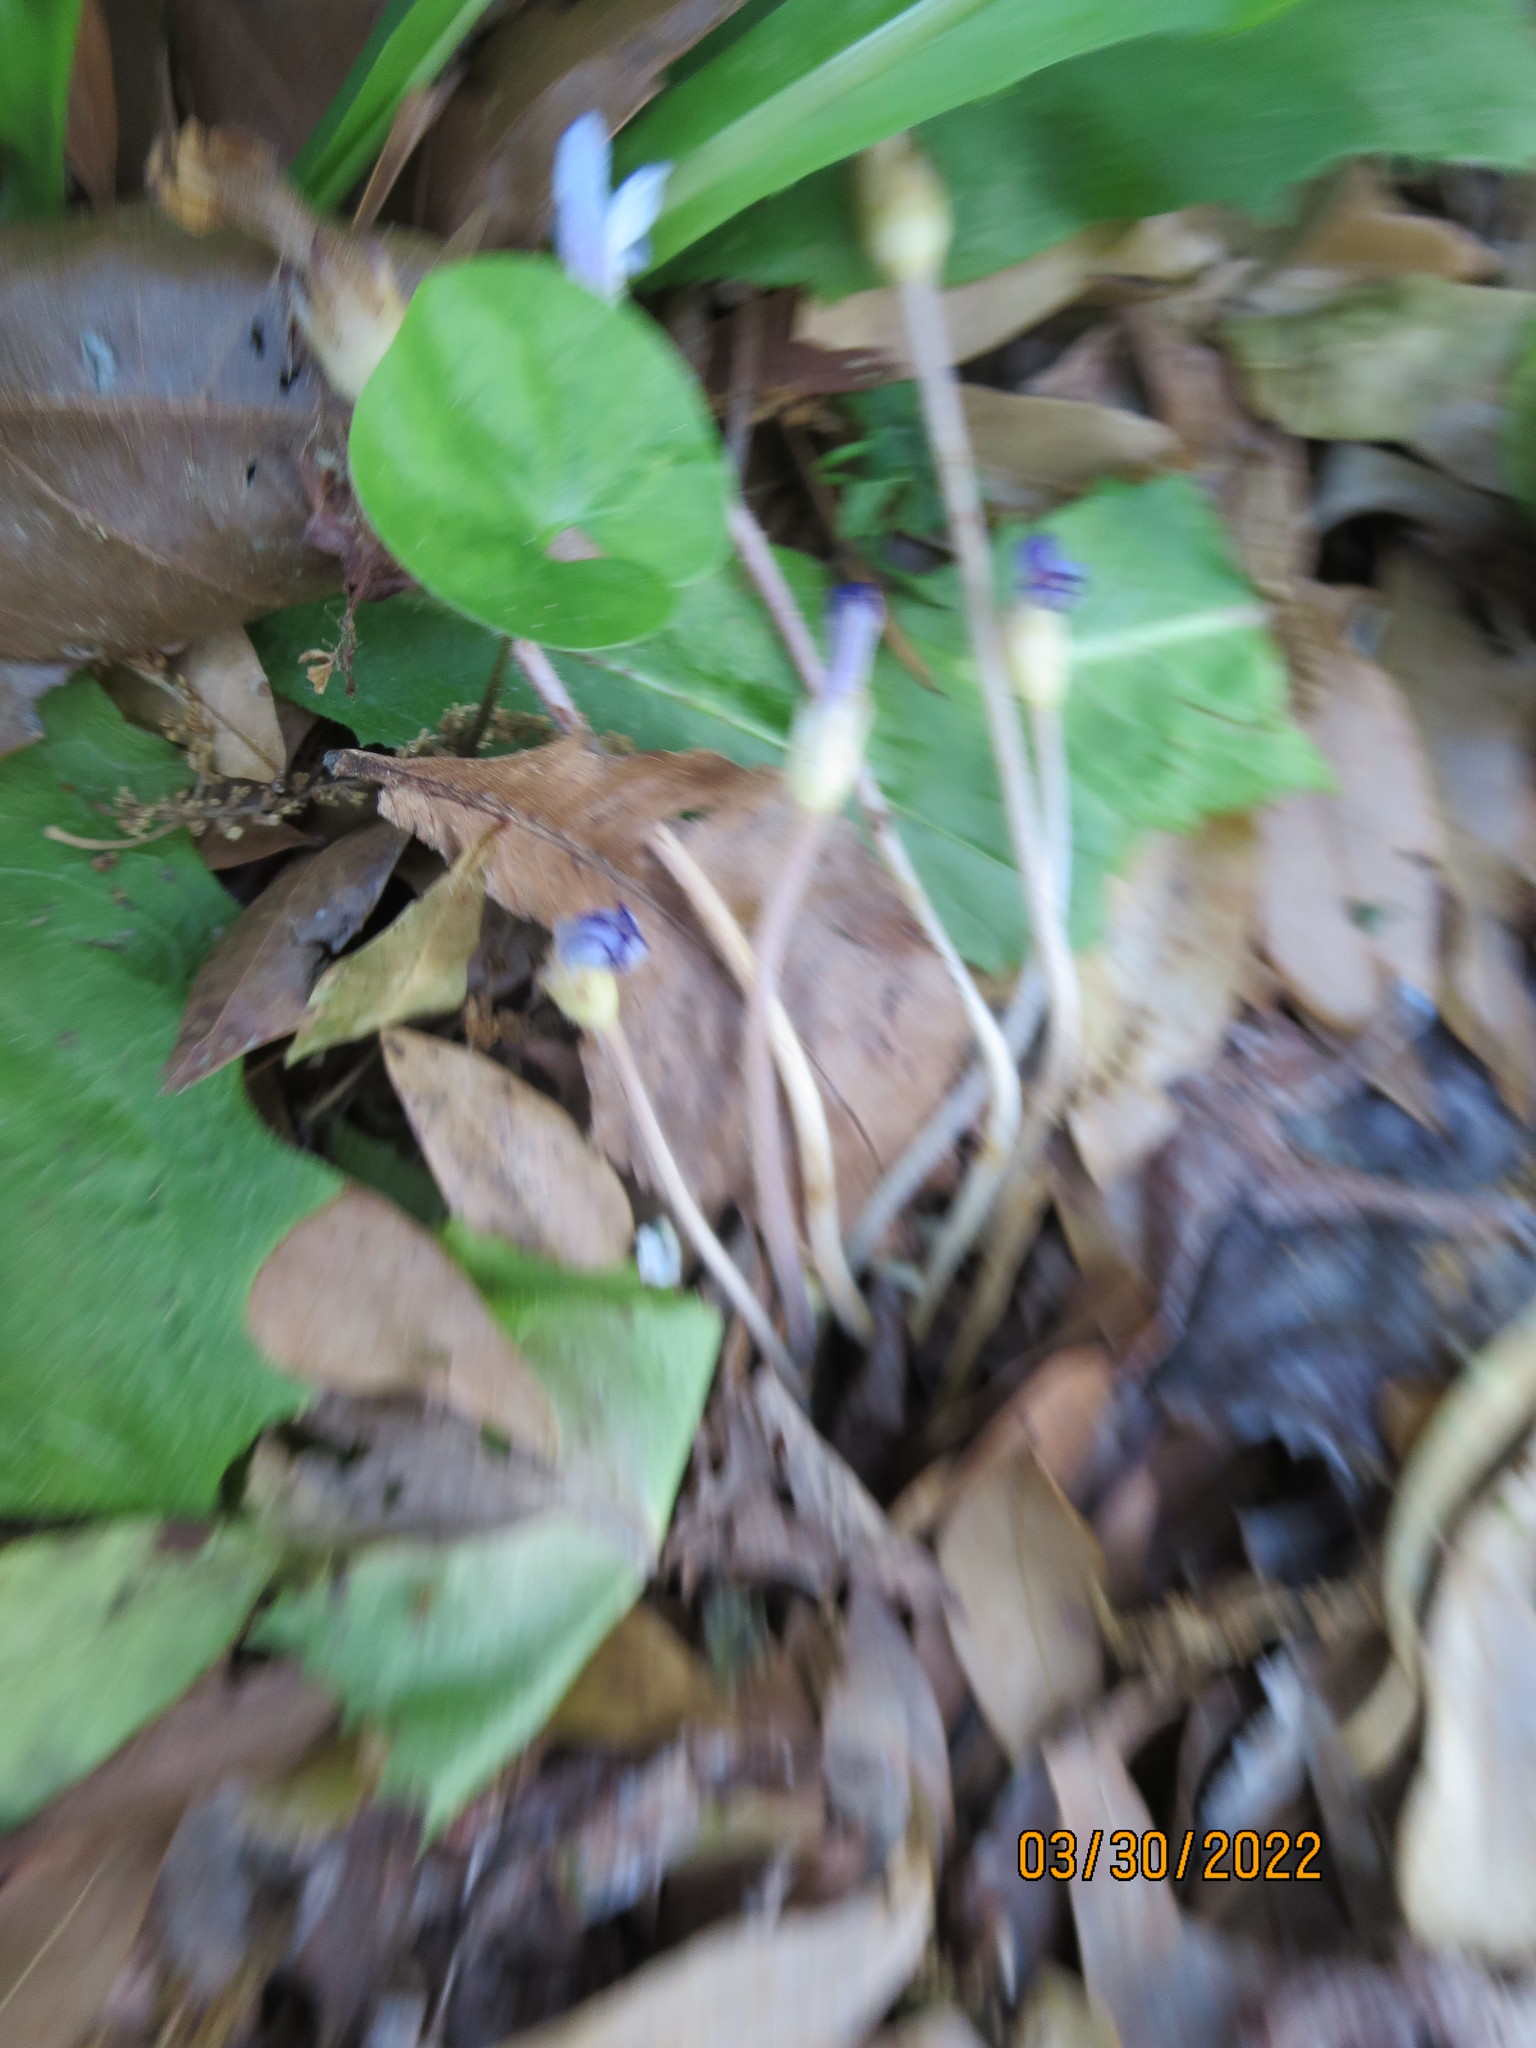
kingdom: Plantae
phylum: Tracheophyta
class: Magnoliopsida
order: Lamiales
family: Orobanchaceae
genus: Aphyllon
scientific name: Aphyllon uniflorum
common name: One-flowered broomrape
